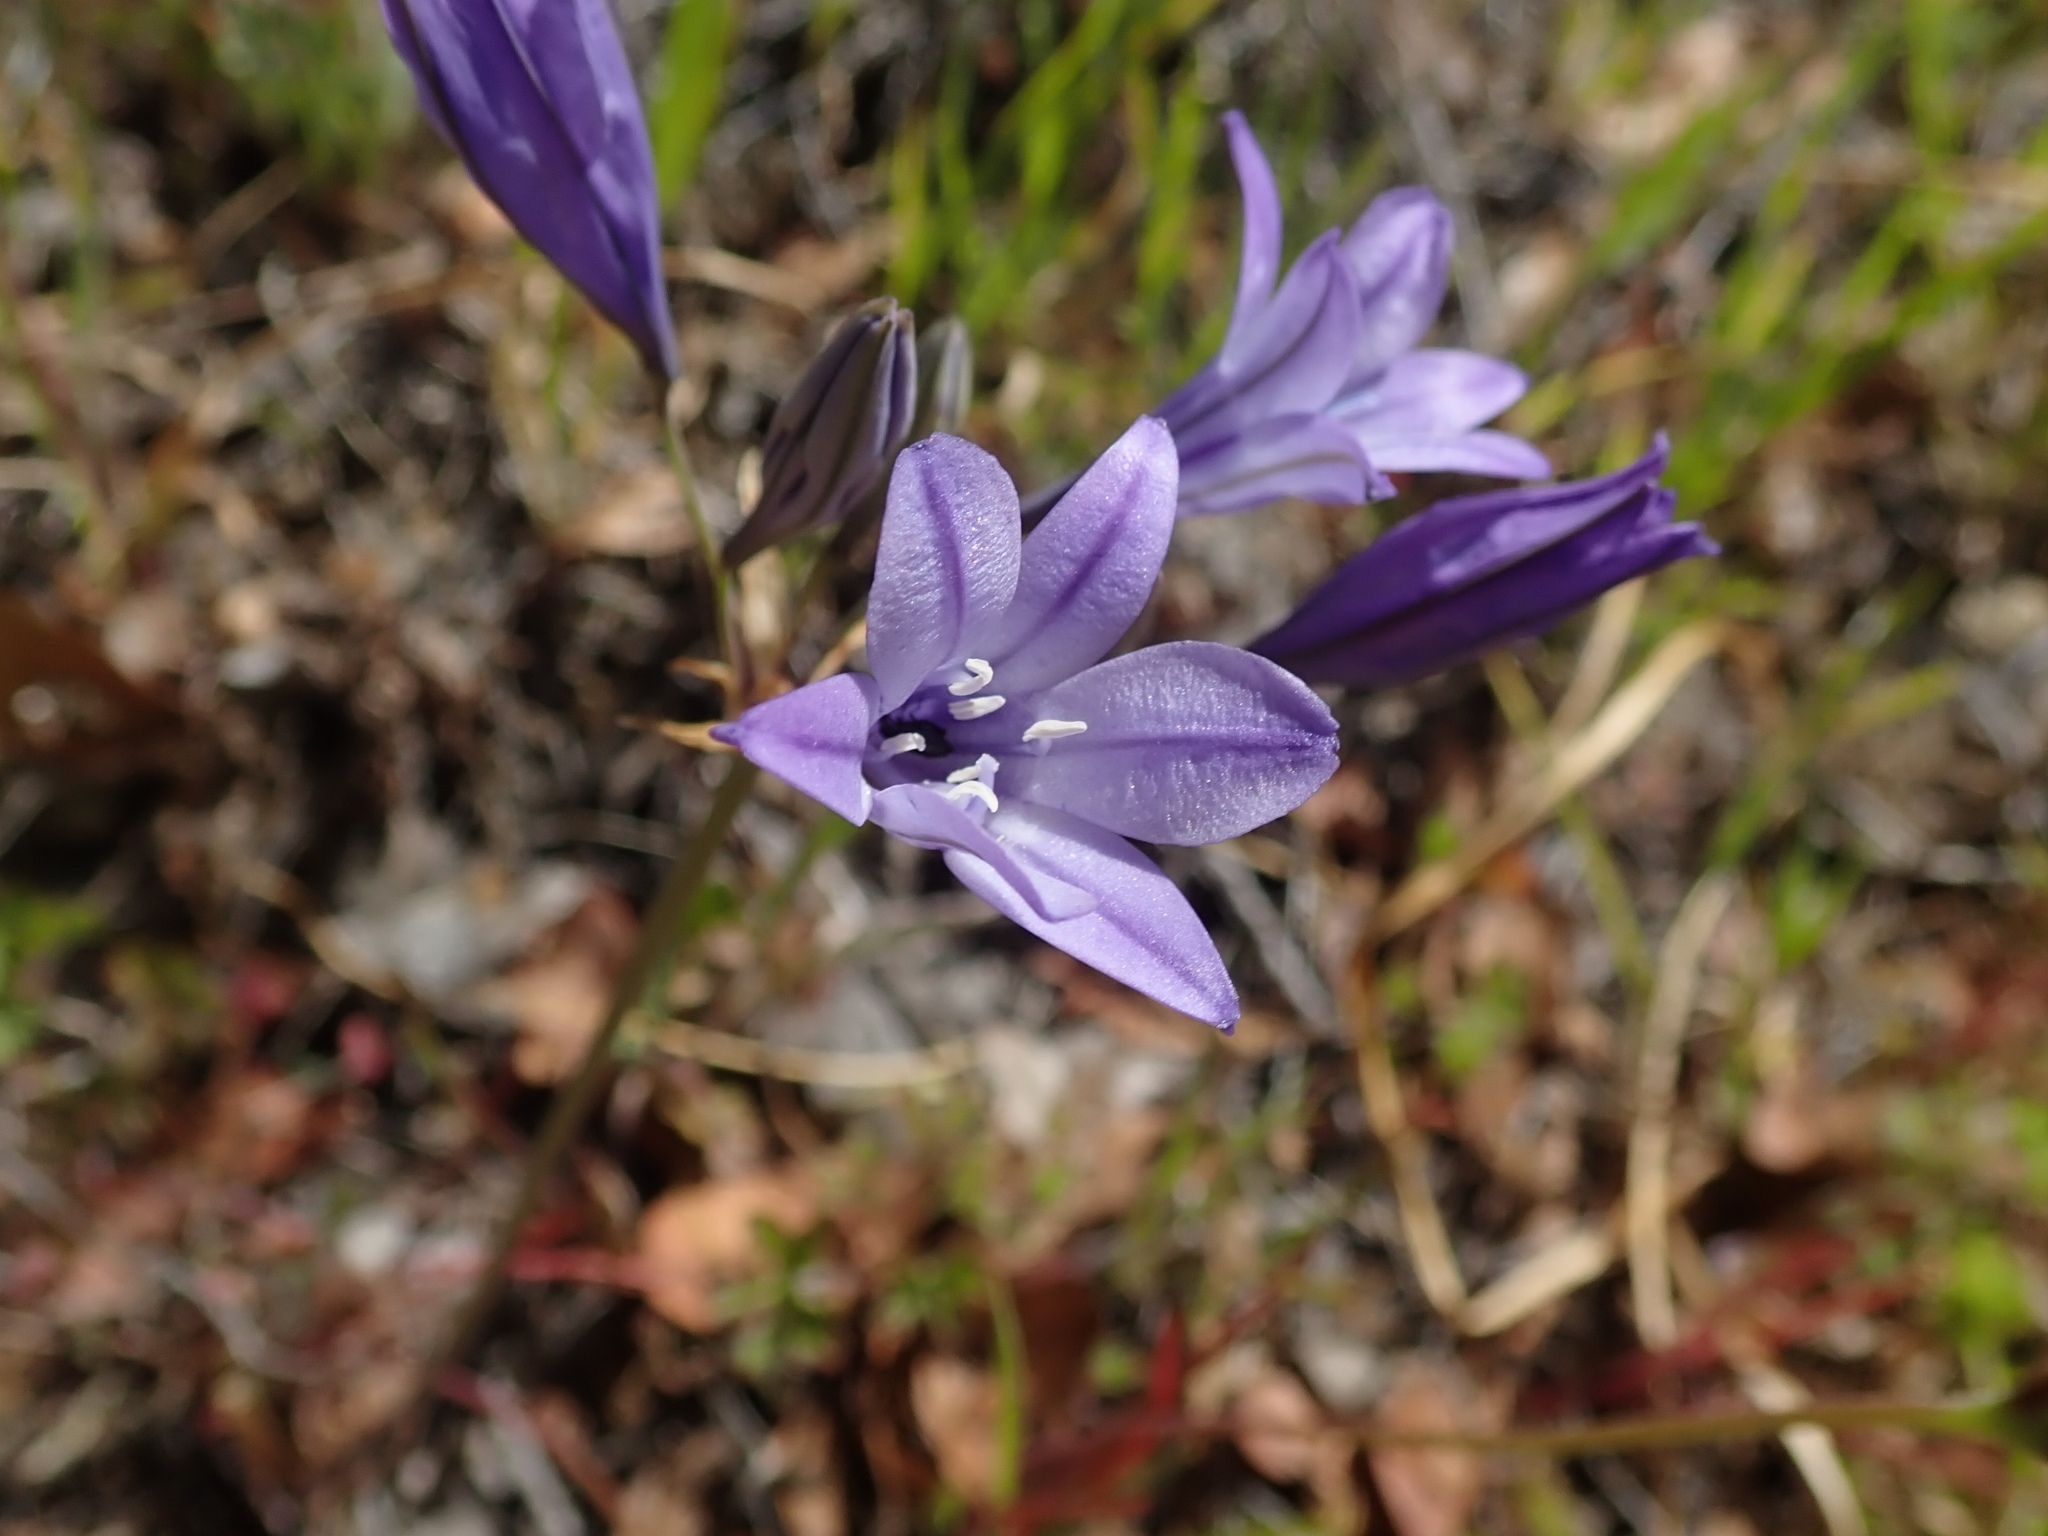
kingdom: Plantae
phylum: Tracheophyta
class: Liliopsida
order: Asparagales
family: Asparagaceae
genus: Triteleia
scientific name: Triteleia laxa
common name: Triplet-lily
